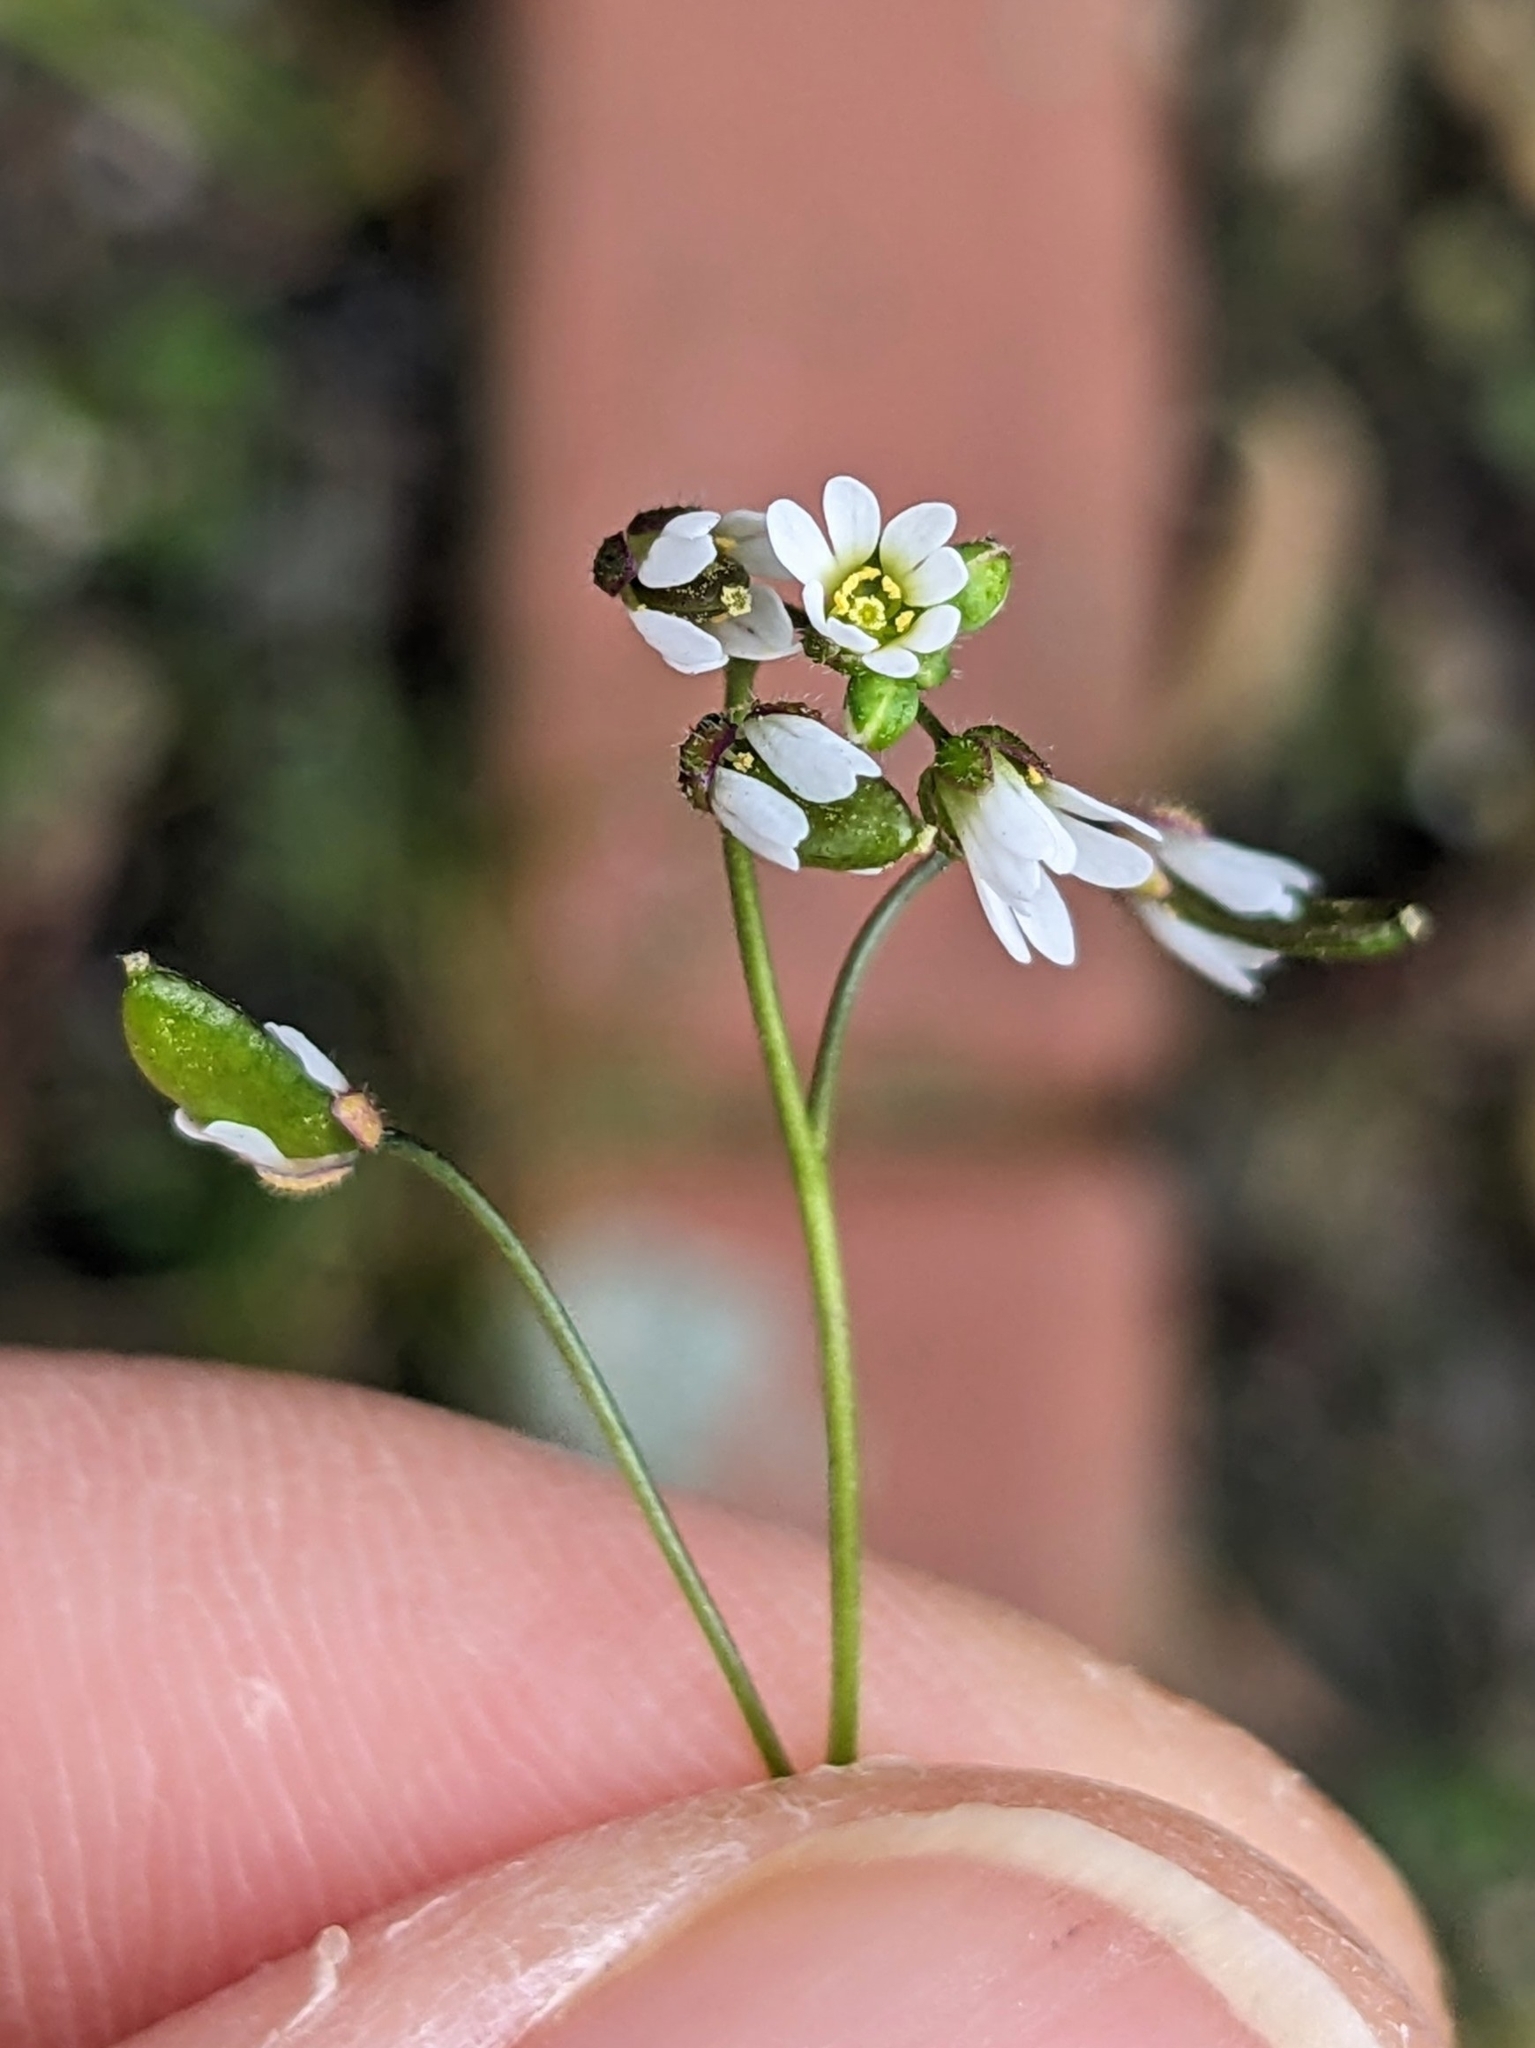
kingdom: Plantae
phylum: Tracheophyta
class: Magnoliopsida
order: Brassicales
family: Brassicaceae
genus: Draba
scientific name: Draba verna
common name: Spring draba
